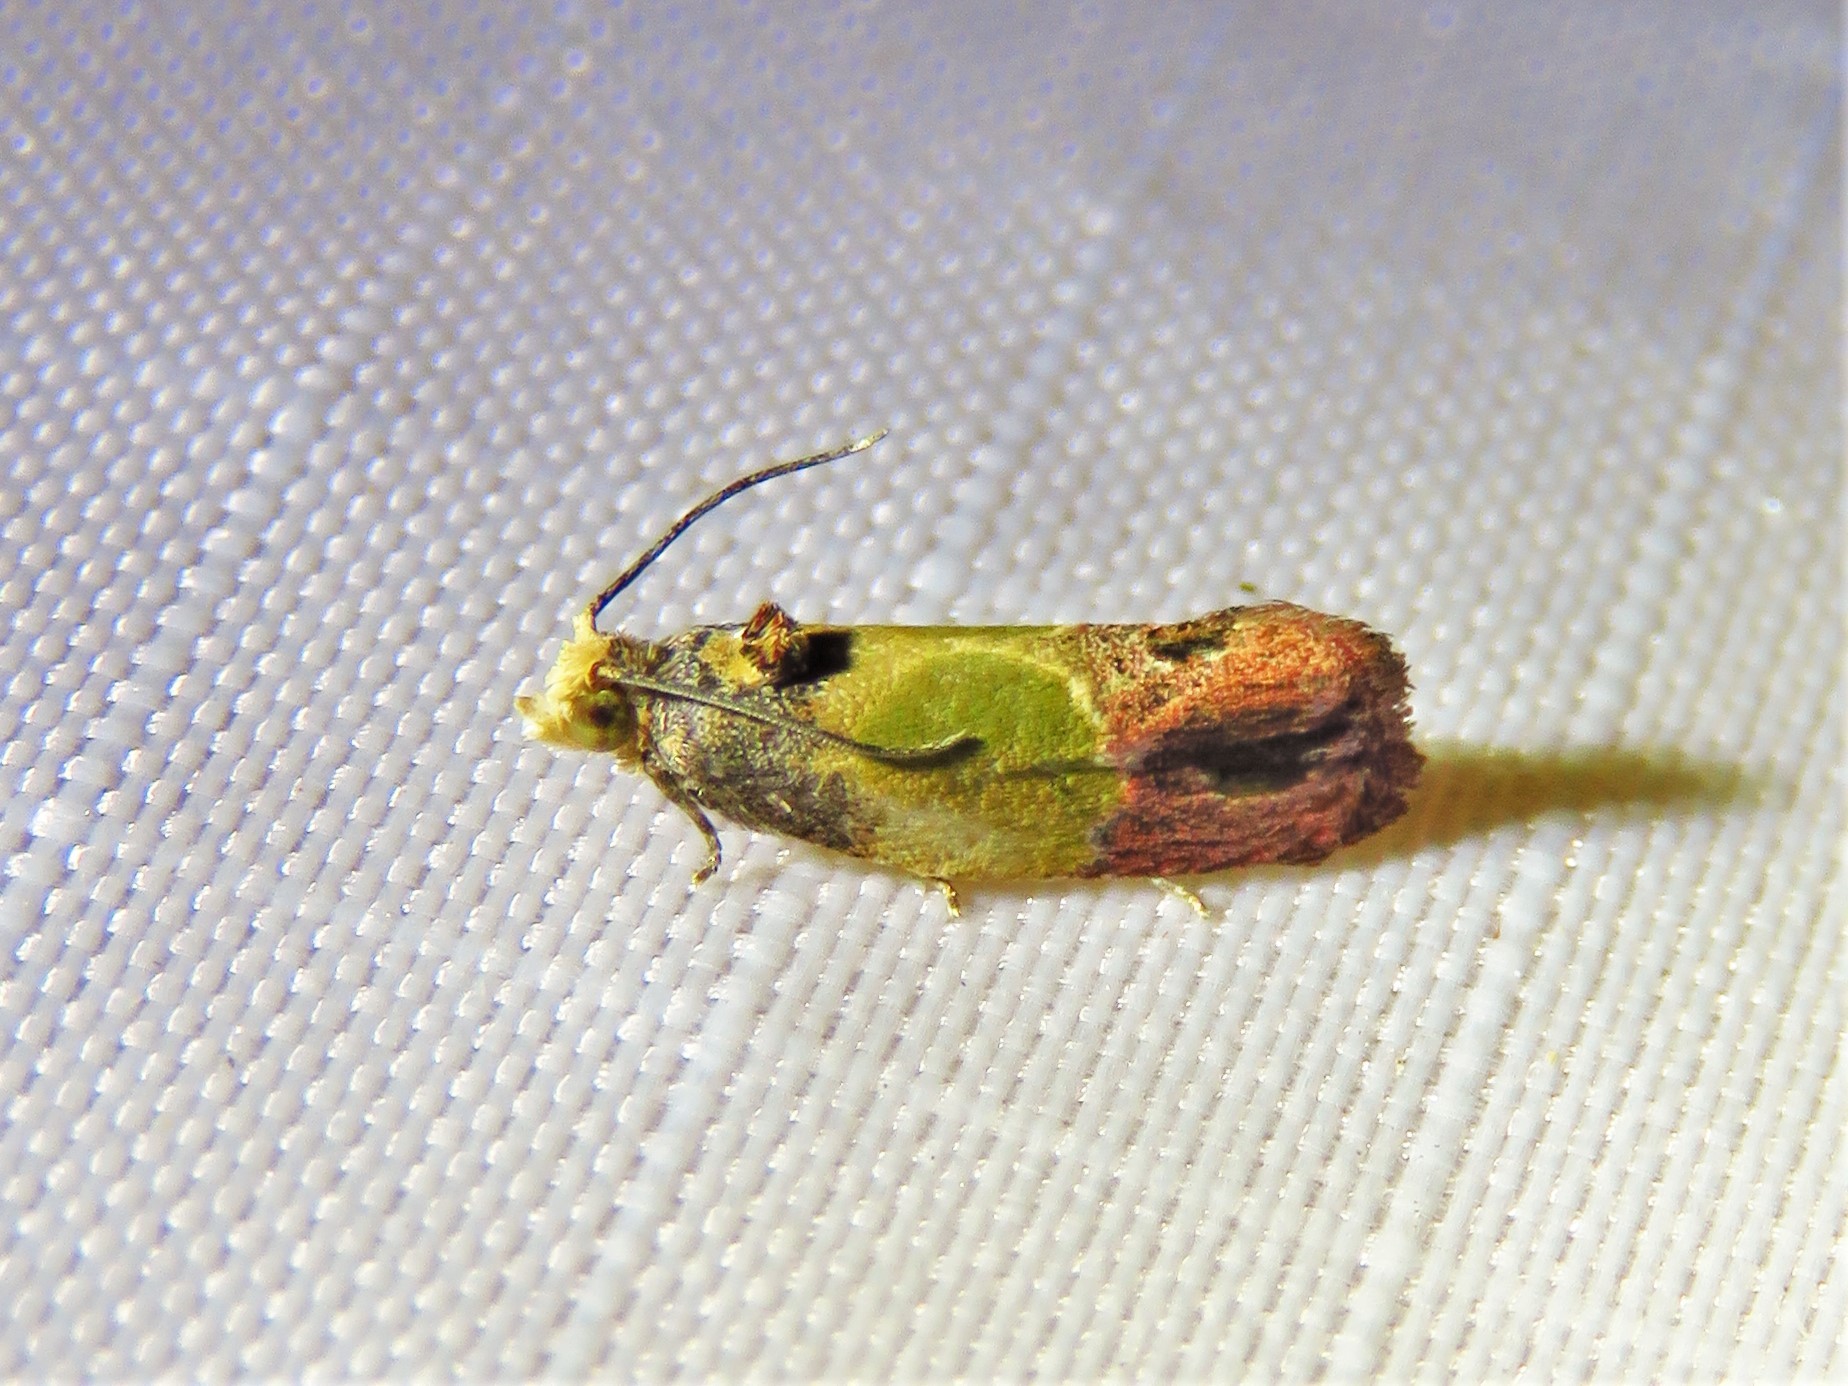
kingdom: Animalia
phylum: Arthropoda
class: Insecta
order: Lepidoptera
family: Tortricidae
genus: Eumarozia
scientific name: Eumarozia malachitana
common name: Sculptured moth
